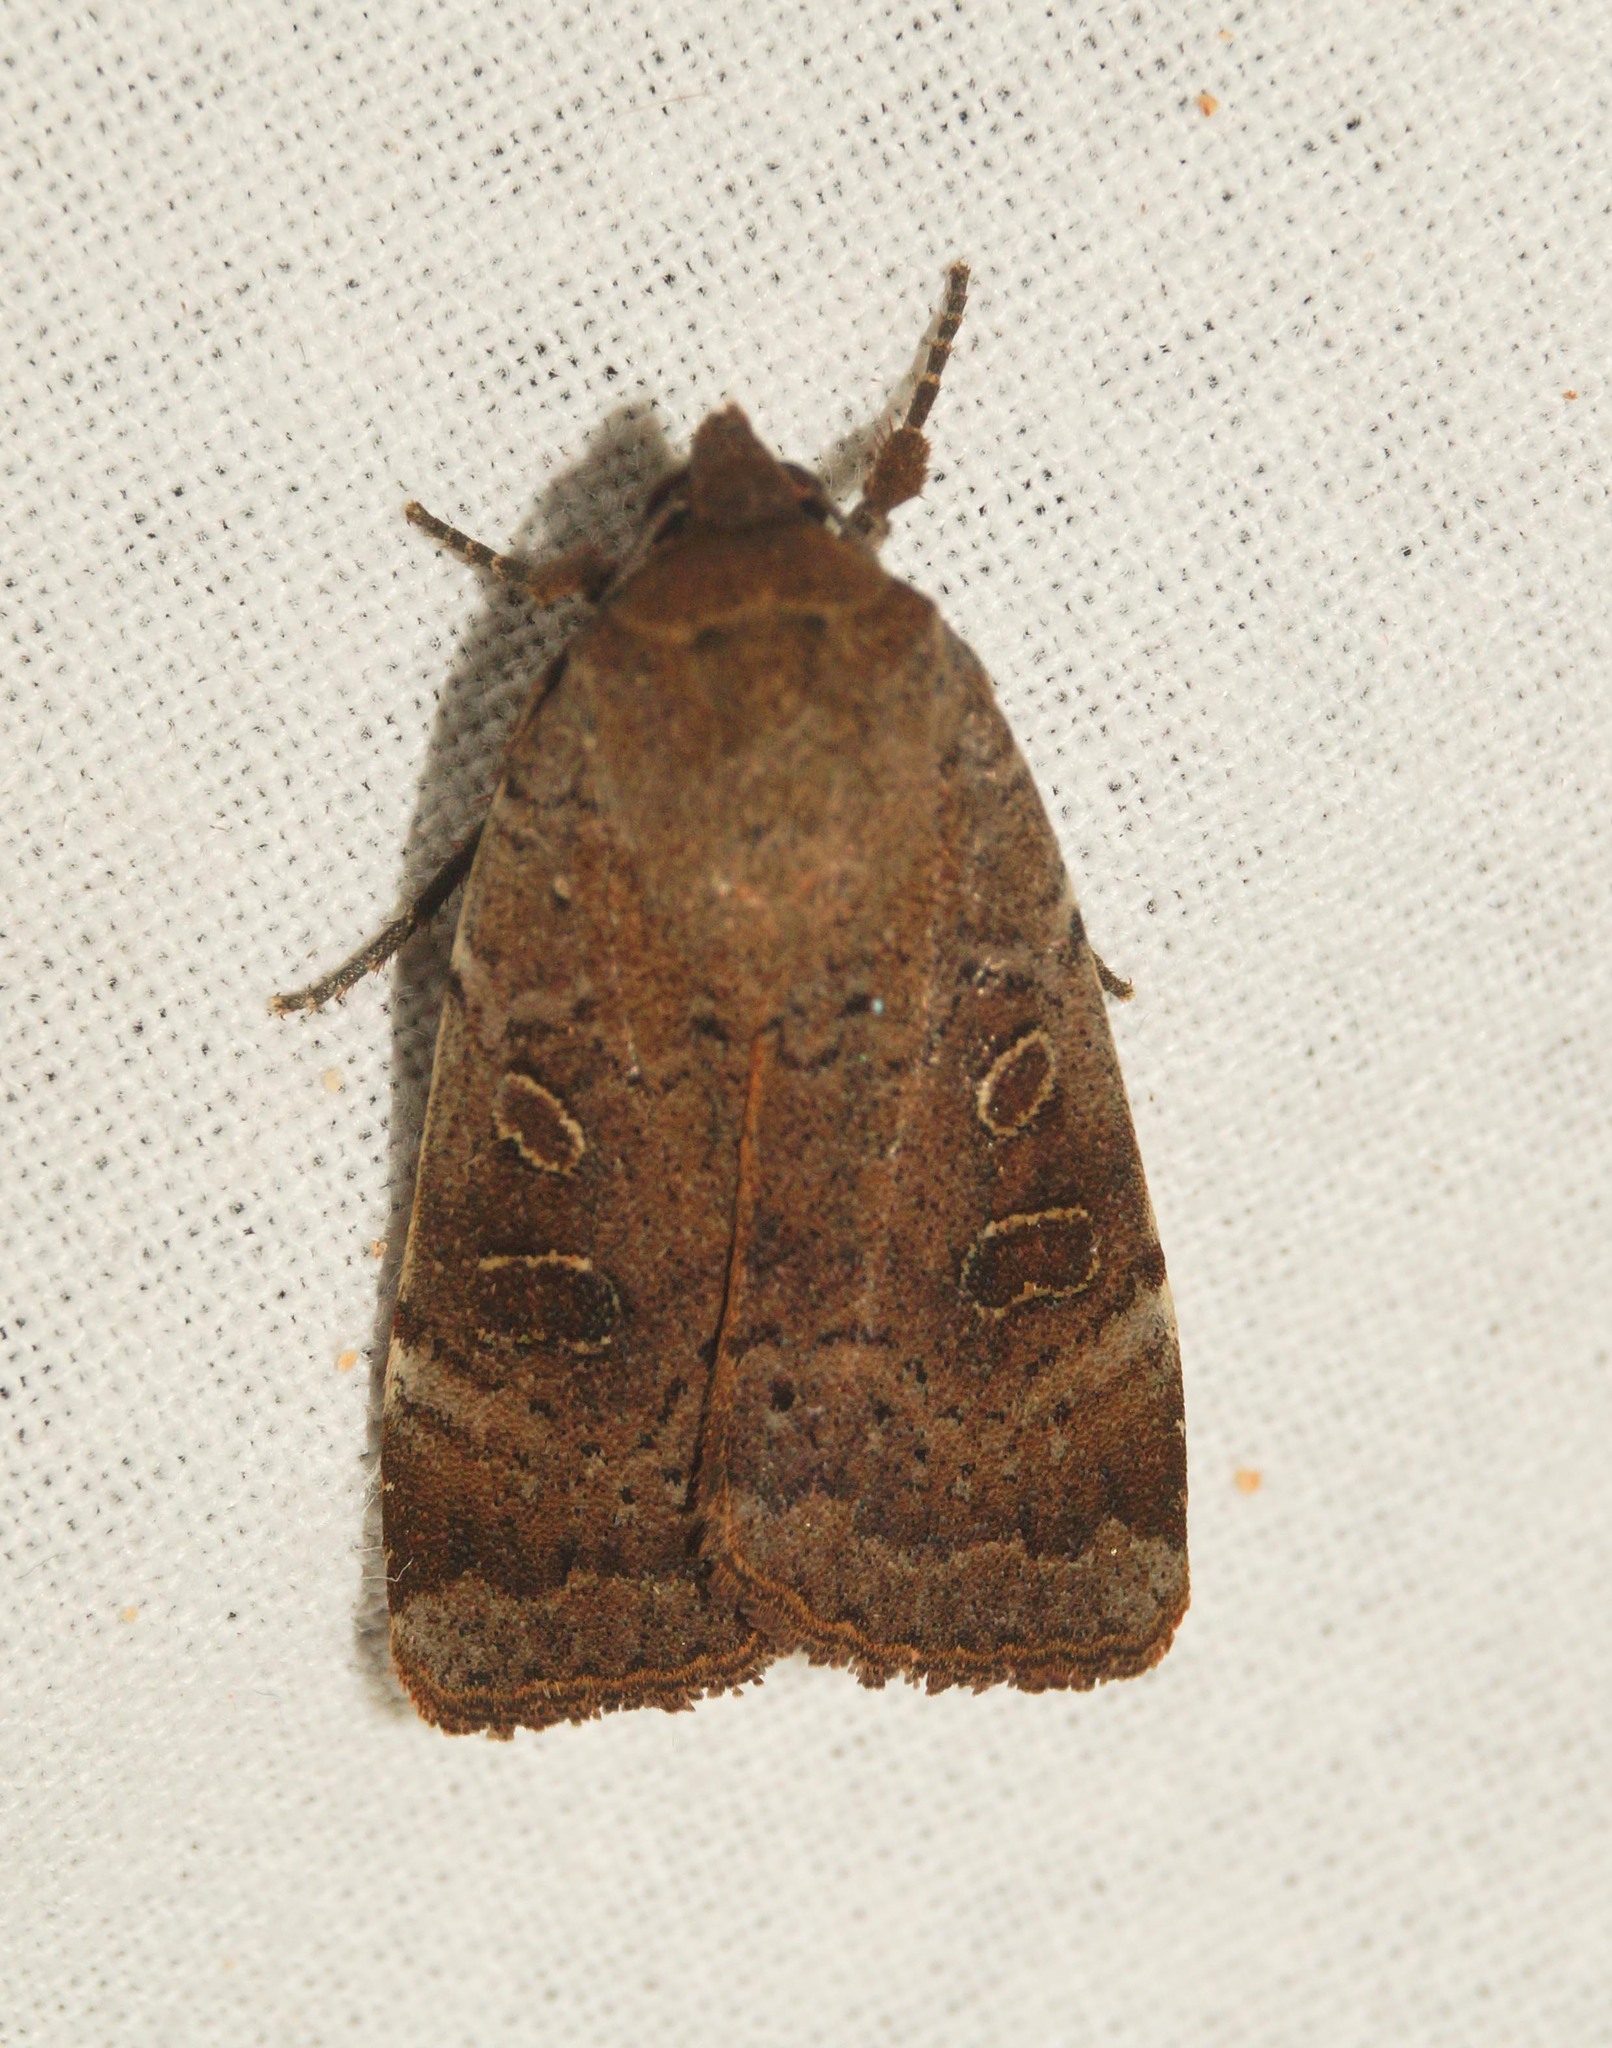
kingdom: Animalia
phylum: Arthropoda
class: Insecta
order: Lepidoptera
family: Noctuidae
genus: Noctua
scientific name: Noctua comes
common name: Lesser yellow underwing
